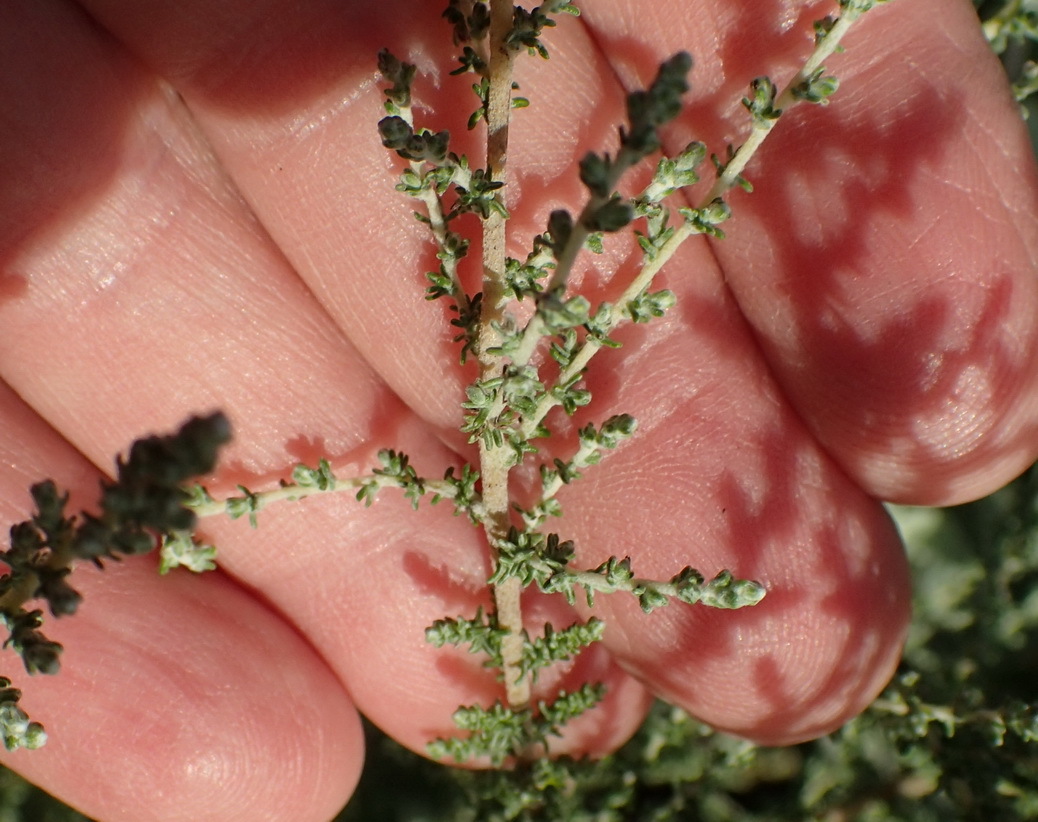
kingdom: Plantae
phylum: Tracheophyta
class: Magnoliopsida
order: Asterales
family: Asteraceae
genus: Seriphium
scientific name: Seriphium plumosum
